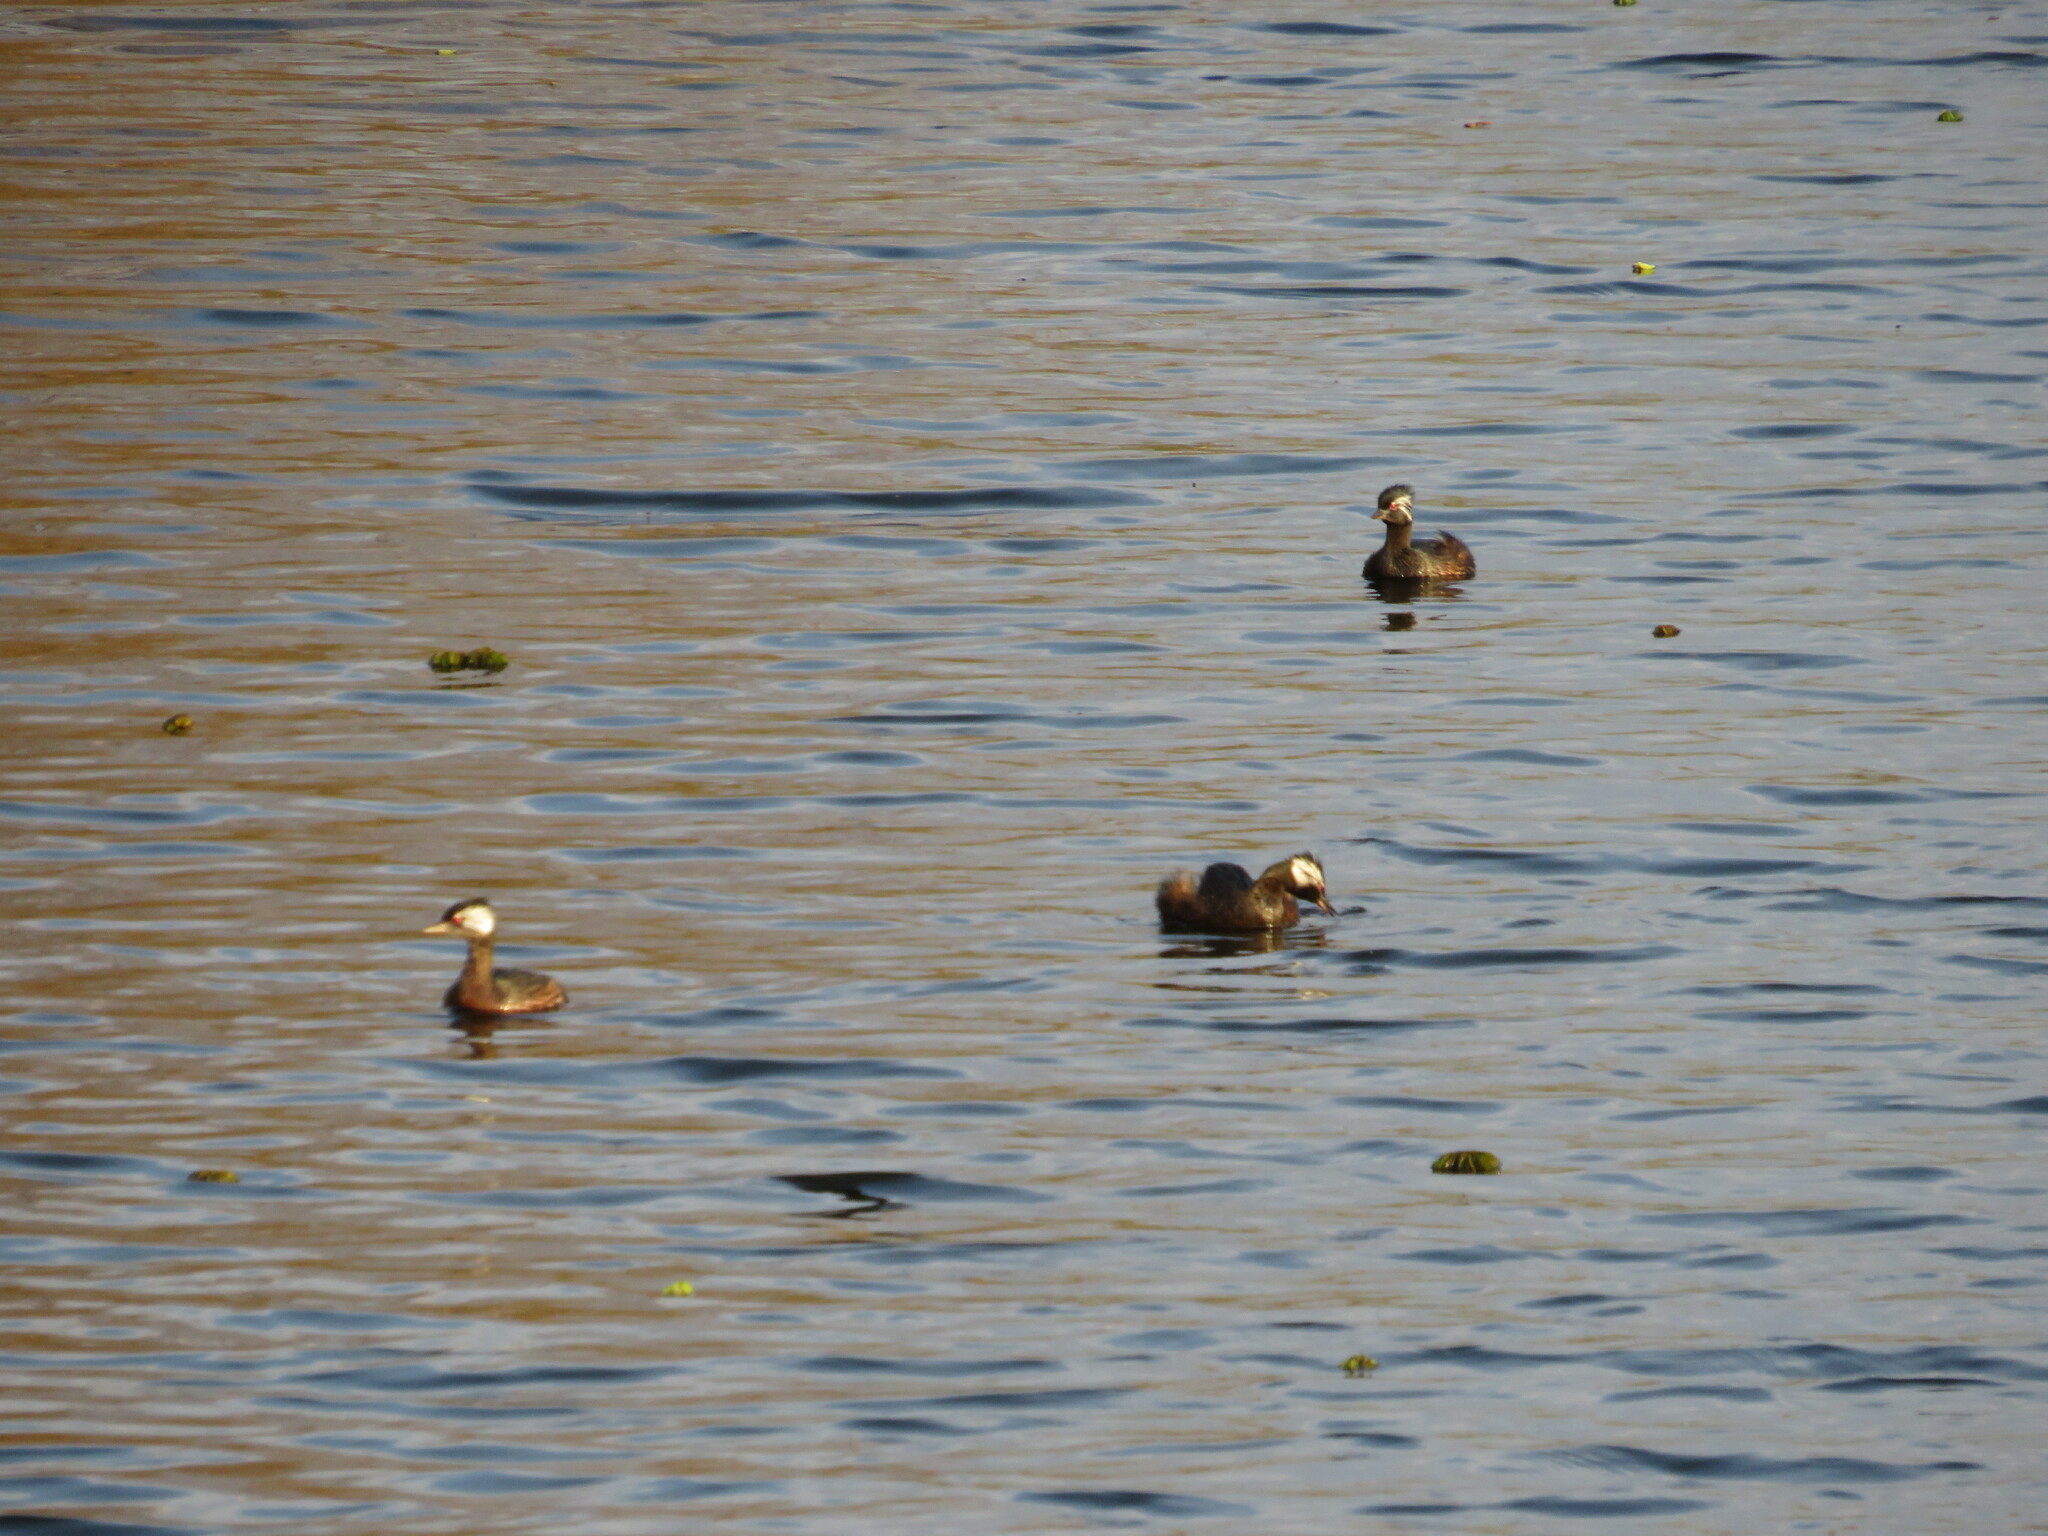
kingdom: Animalia
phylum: Chordata
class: Aves
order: Podicipediformes
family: Podicipedidae
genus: Rollandia
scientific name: Rollandia rolland
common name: White-tufted grebe
